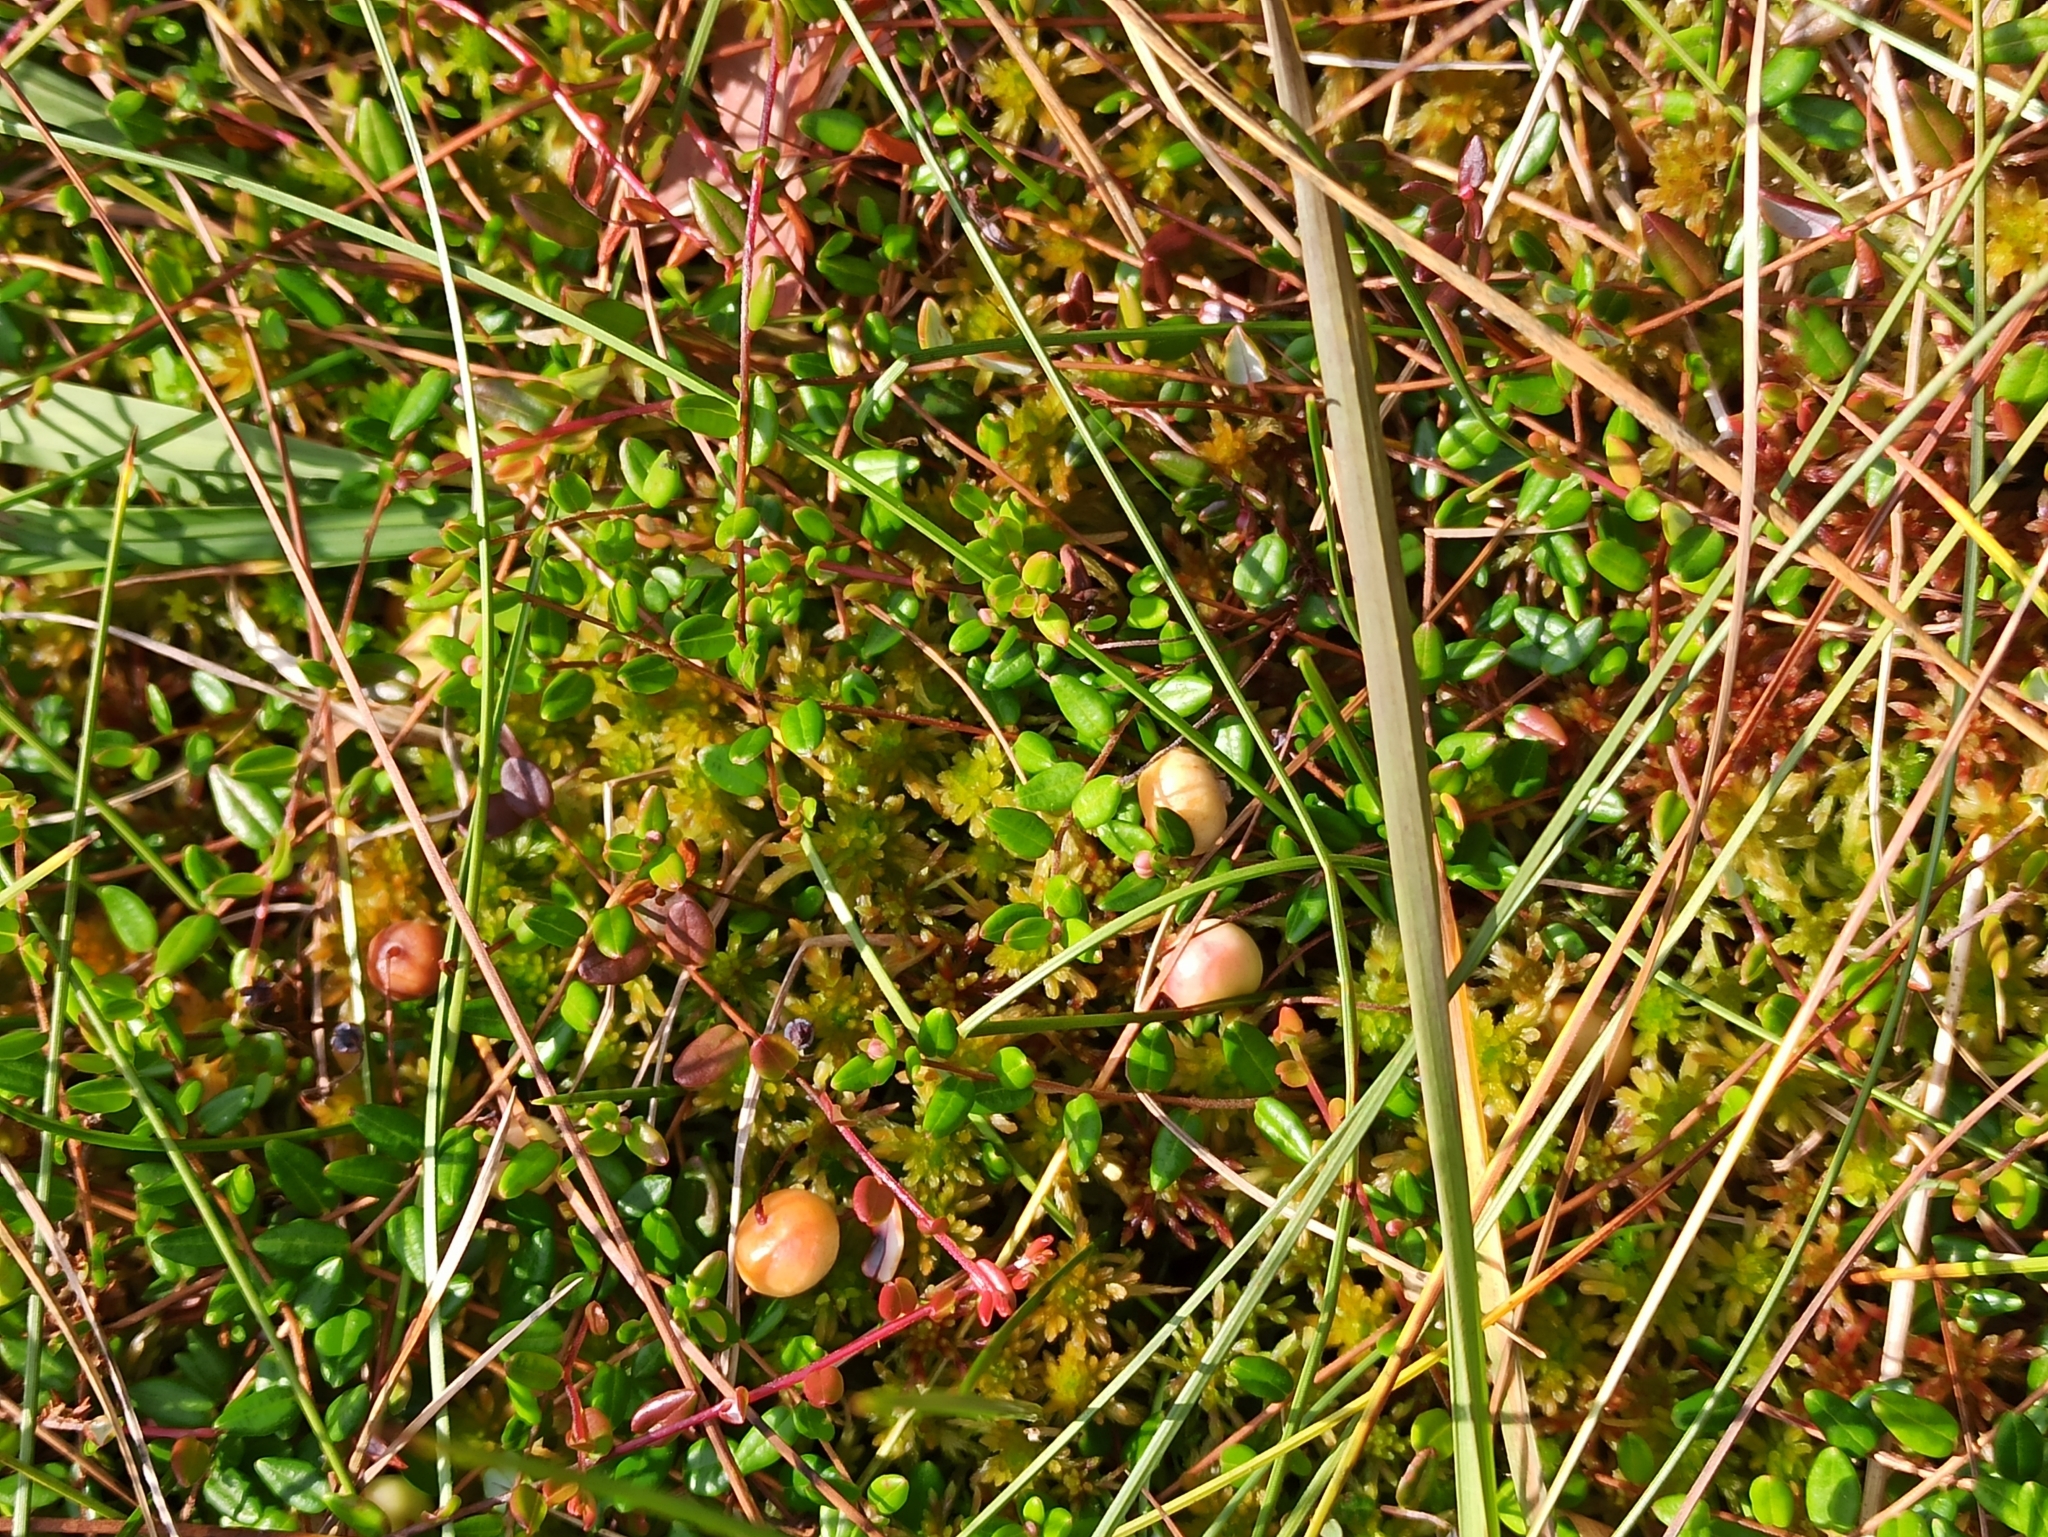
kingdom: Plantae
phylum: Tracheophyta
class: Magnoliopsida
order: Ericales
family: Ericaceae
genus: Vaccinium
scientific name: Vaccinium oxycoccos
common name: Cranberry
